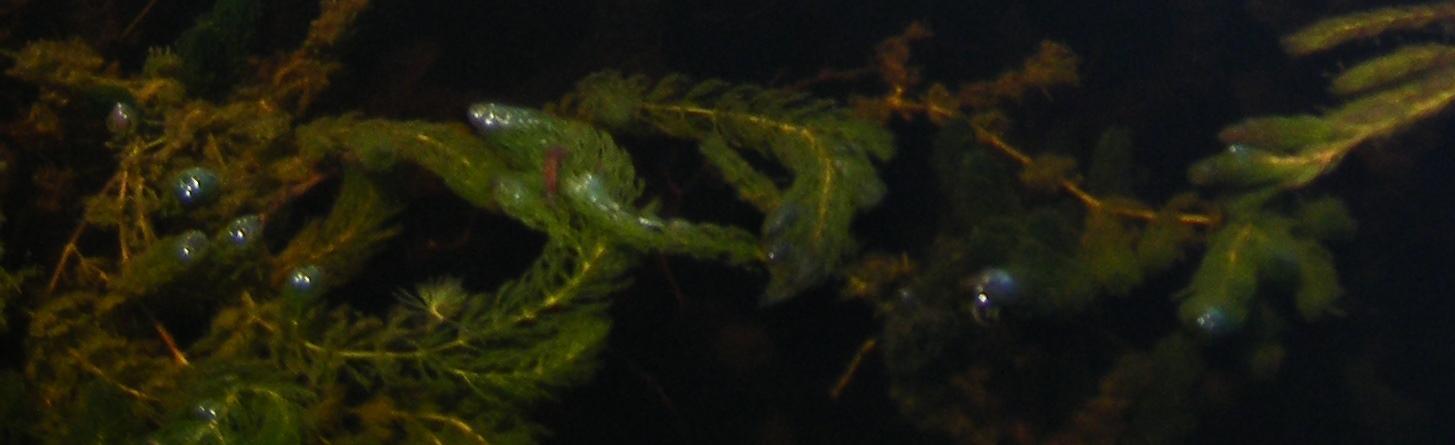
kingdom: Plantae
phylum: Tracheophyta
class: Magnoliopsida
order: Ceratophyllales
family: Ceratophyllaceae
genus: Ceratophyllum
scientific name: Ceratophyllum demersum
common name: Rigid hornwort
